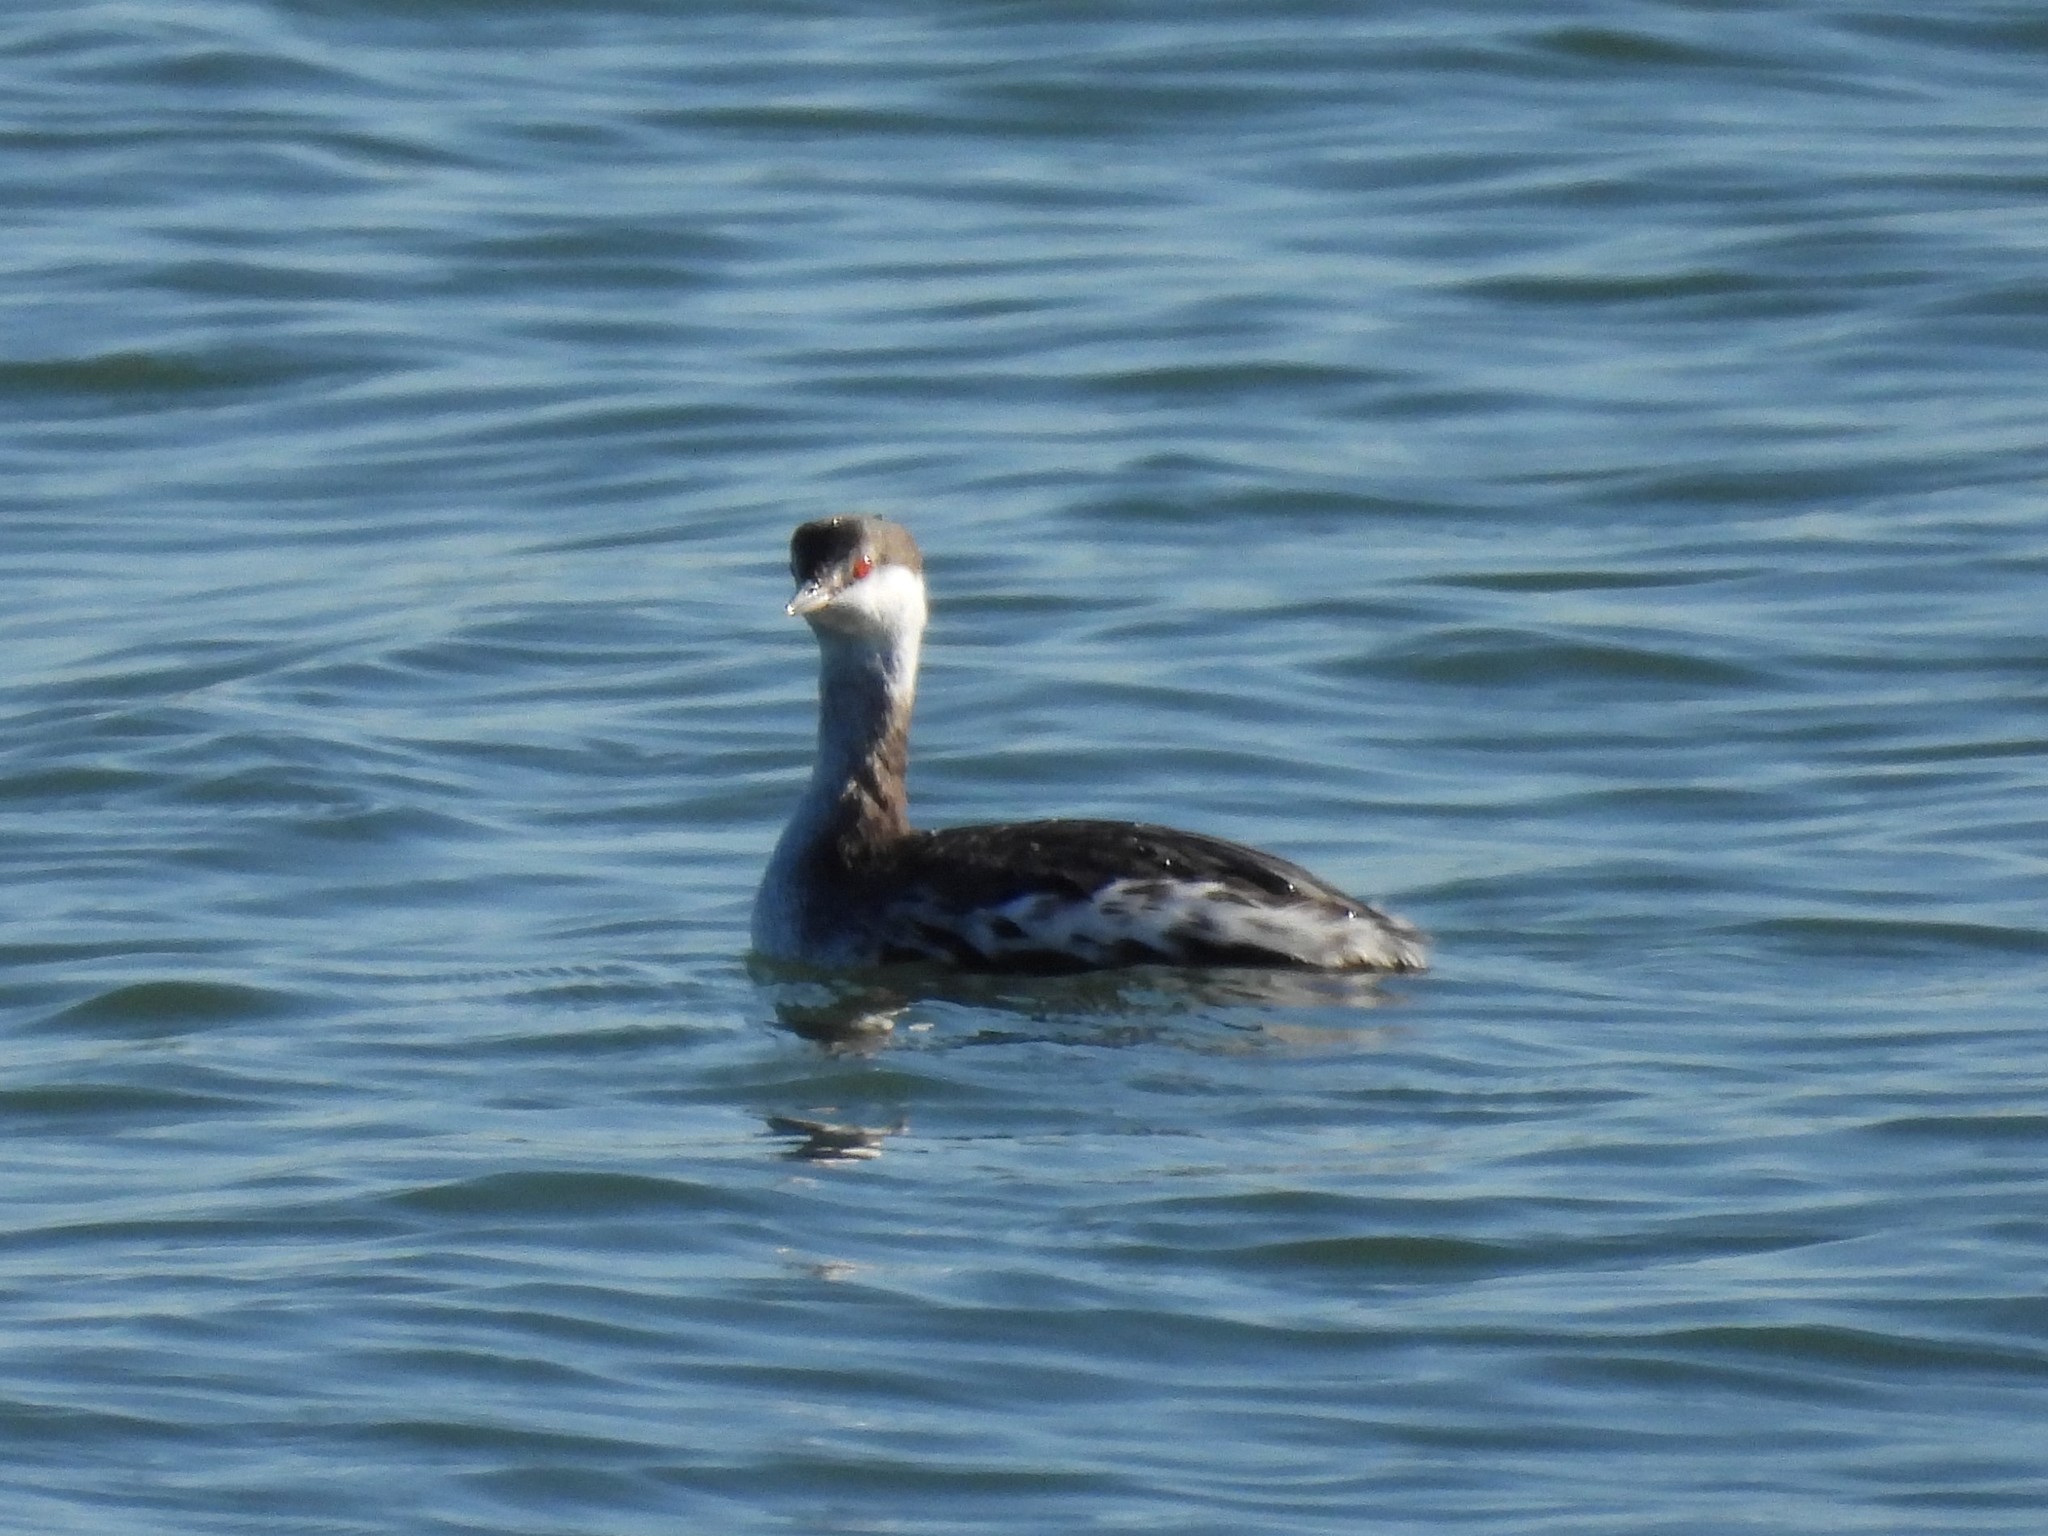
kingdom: Animalia
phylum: Chordata
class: Aves
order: Podicipediformes
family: Podicipedidae
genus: Podiceps
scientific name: Podiceps auritus
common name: Horned grebe
